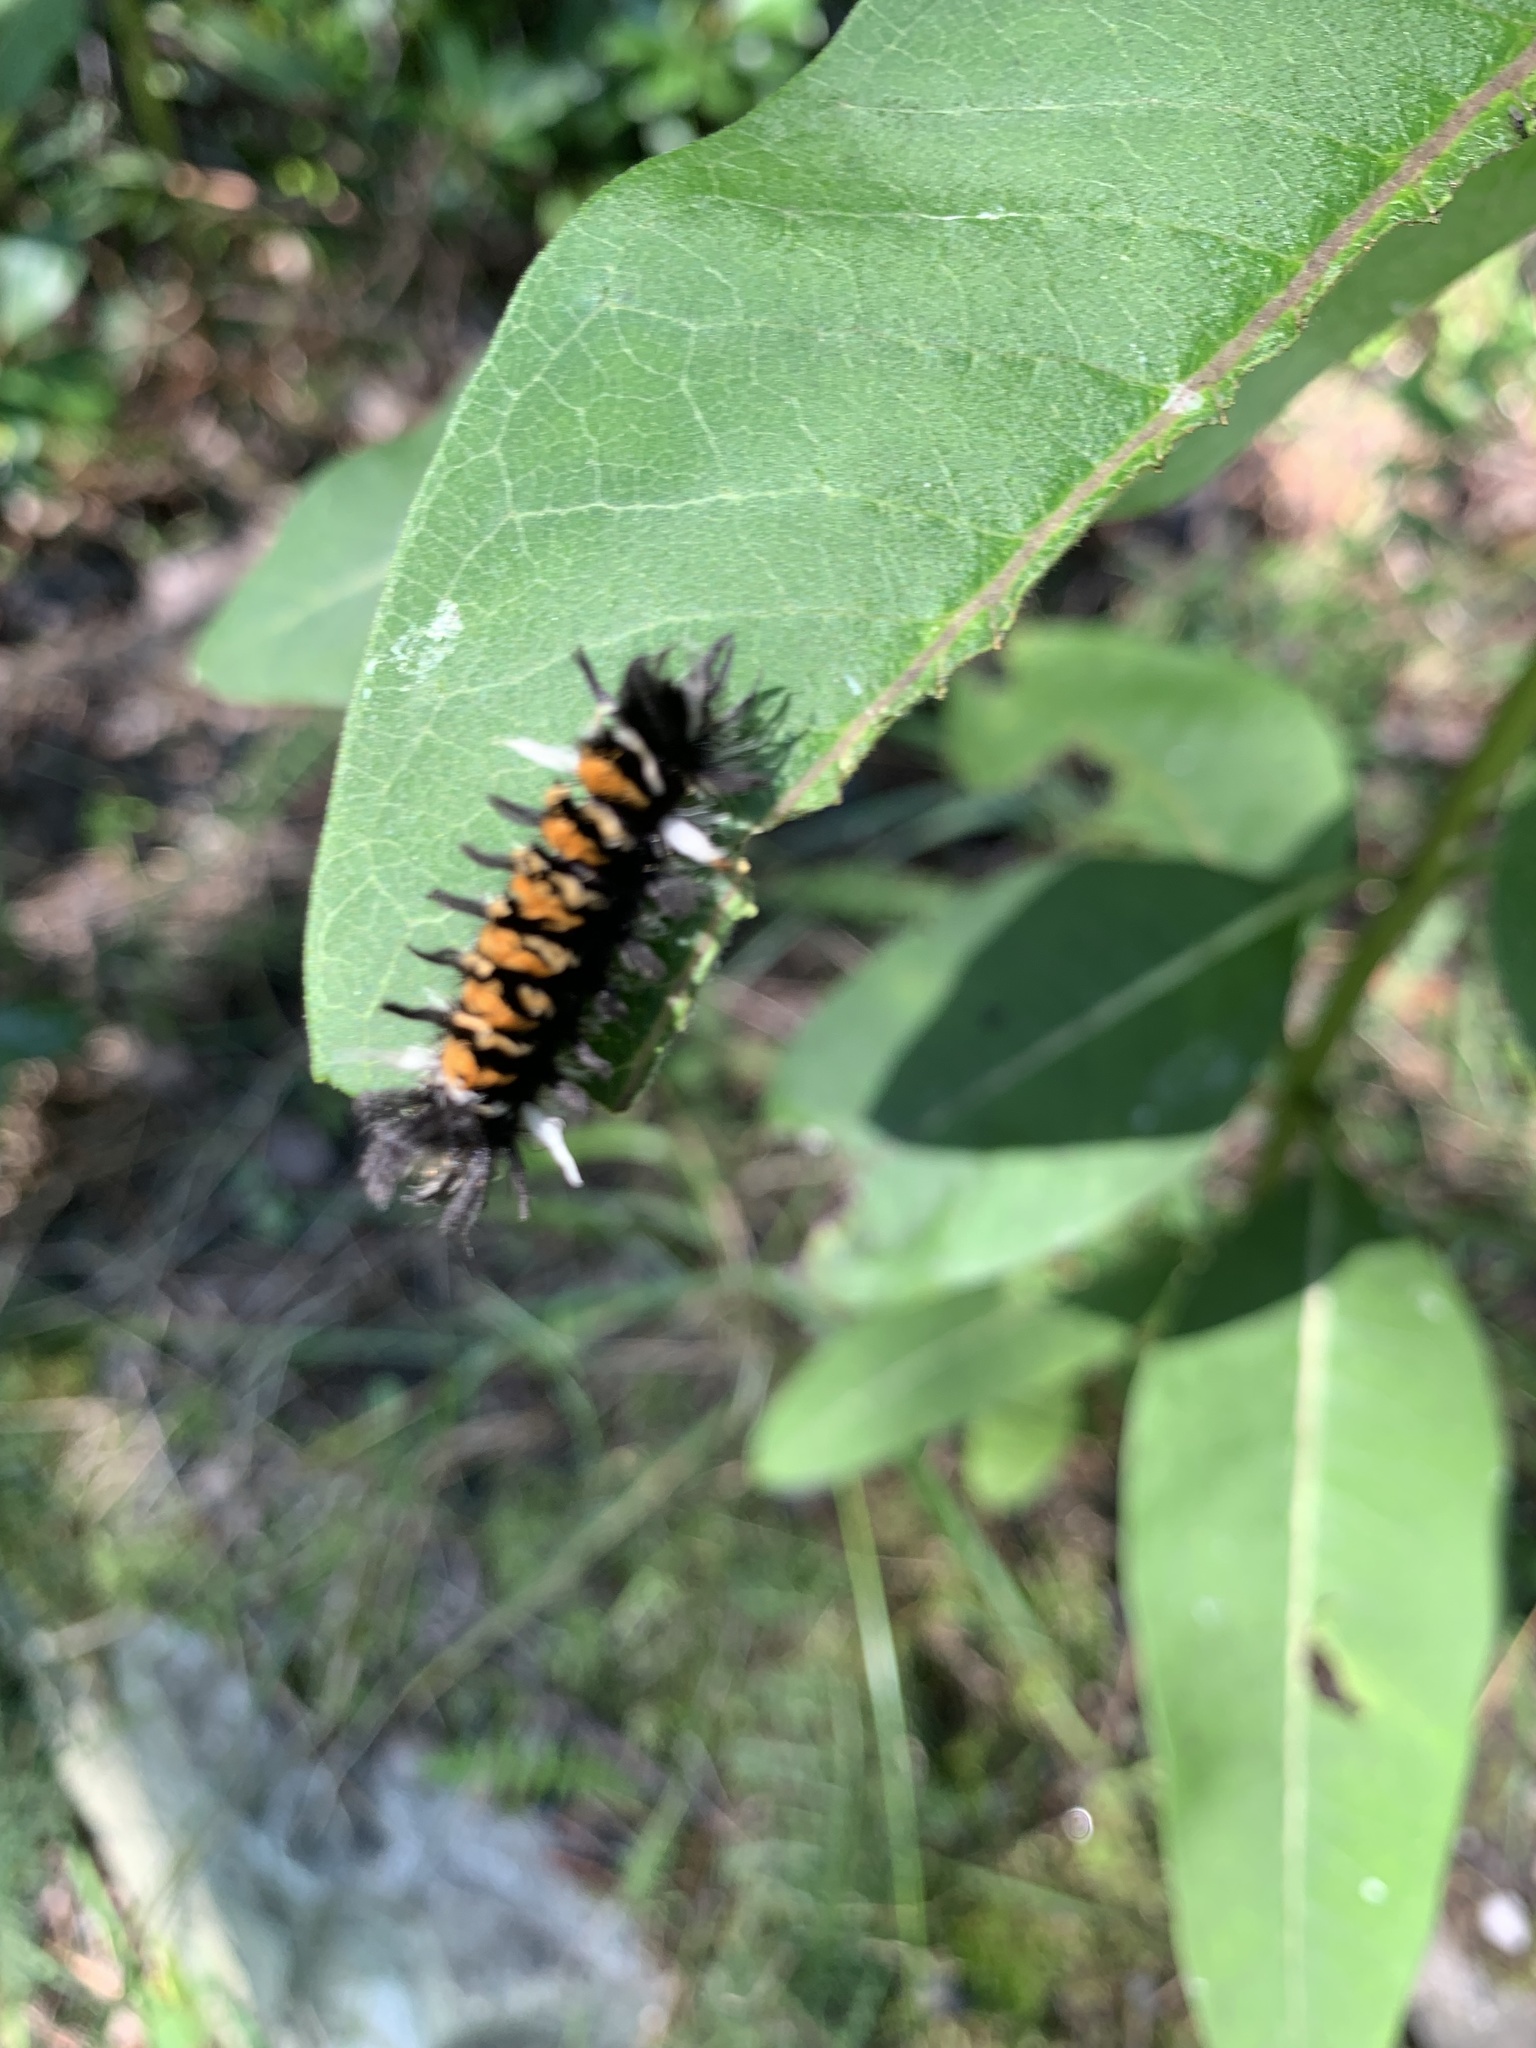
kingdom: Animalia
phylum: Arthropoda
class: Insecta
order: Lepidoptera
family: Erebidae
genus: Euchaetes
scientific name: Euchaetes egle
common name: Milkweed tussock moth
